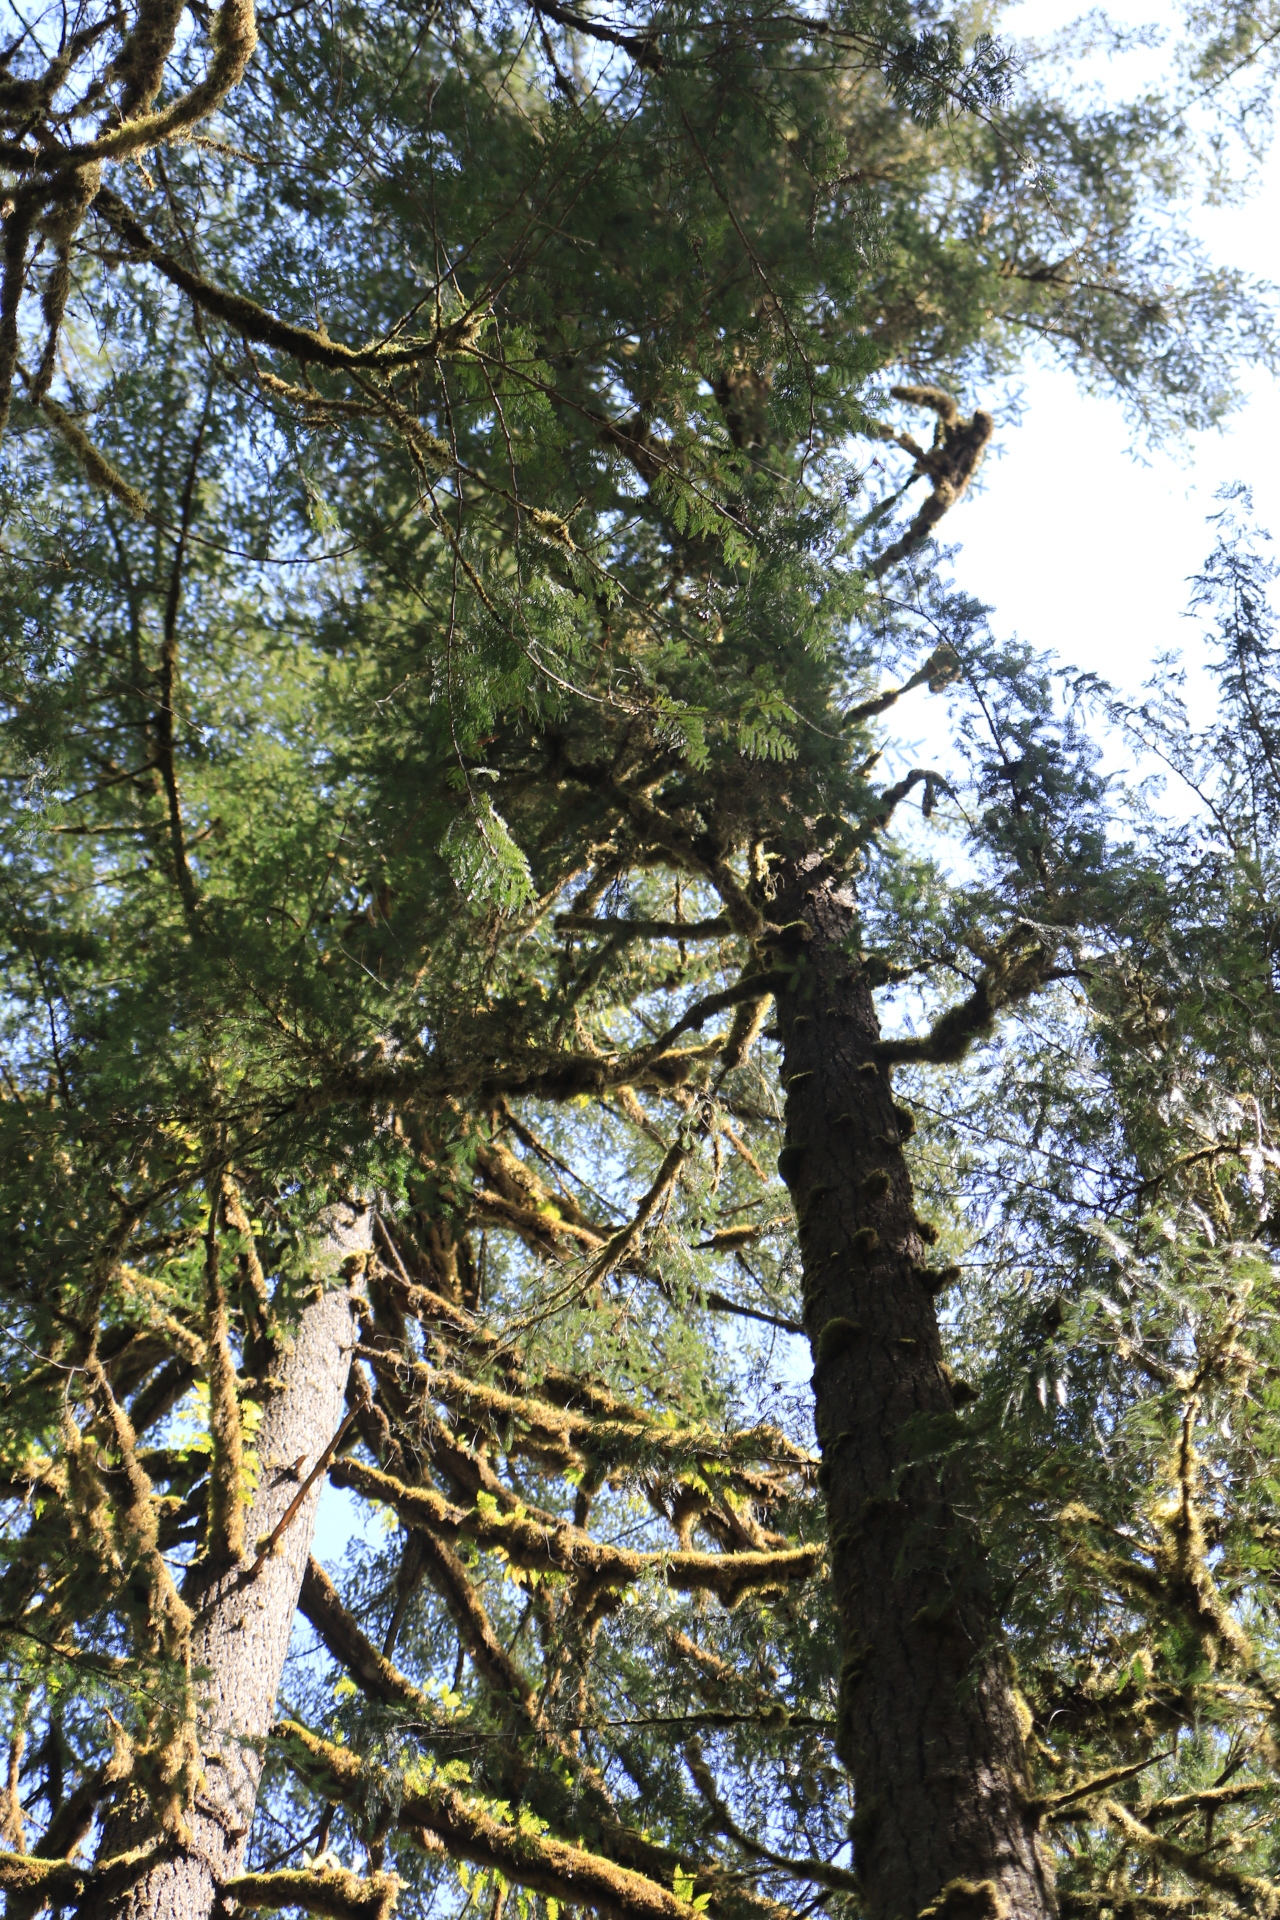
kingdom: Plantae
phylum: Tracheophyta
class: Pinopsida
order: Pinales
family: Pinaceae
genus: Pseudotsuga
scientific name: Pseudotsuga menziesii
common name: Douglas fir
